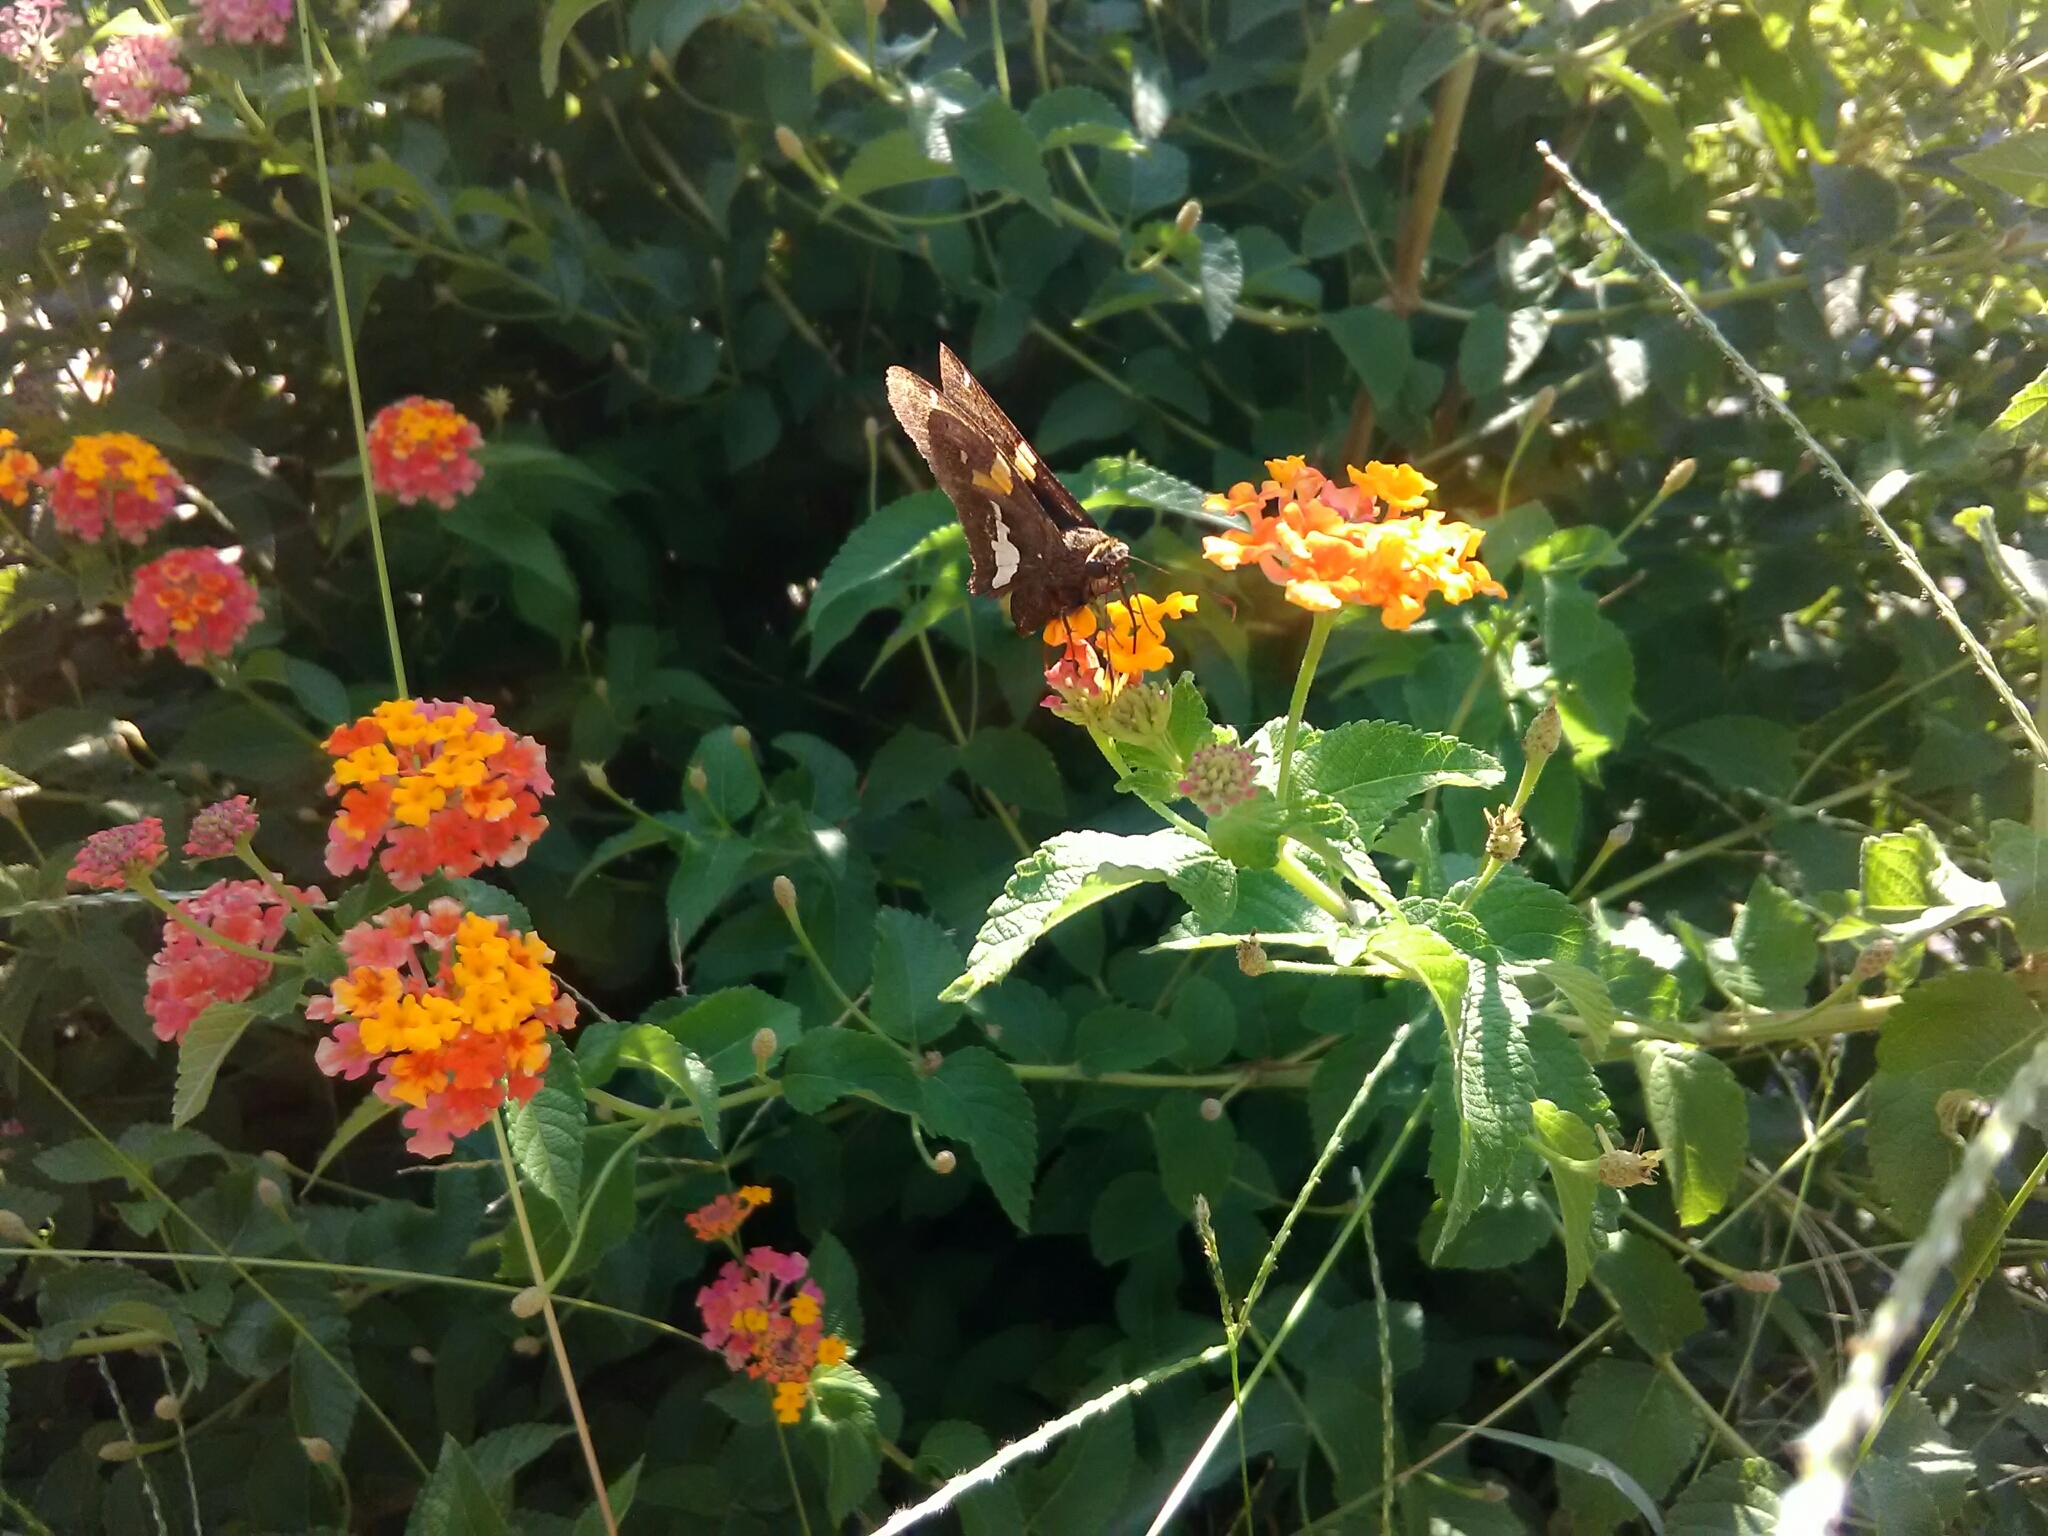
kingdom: Animalia
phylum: Arthropoda
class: Insecta
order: Lepidoptera
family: Hesperiidae
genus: Epargyreus
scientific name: Epargyreus clarus
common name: Silver-spotted skipper
